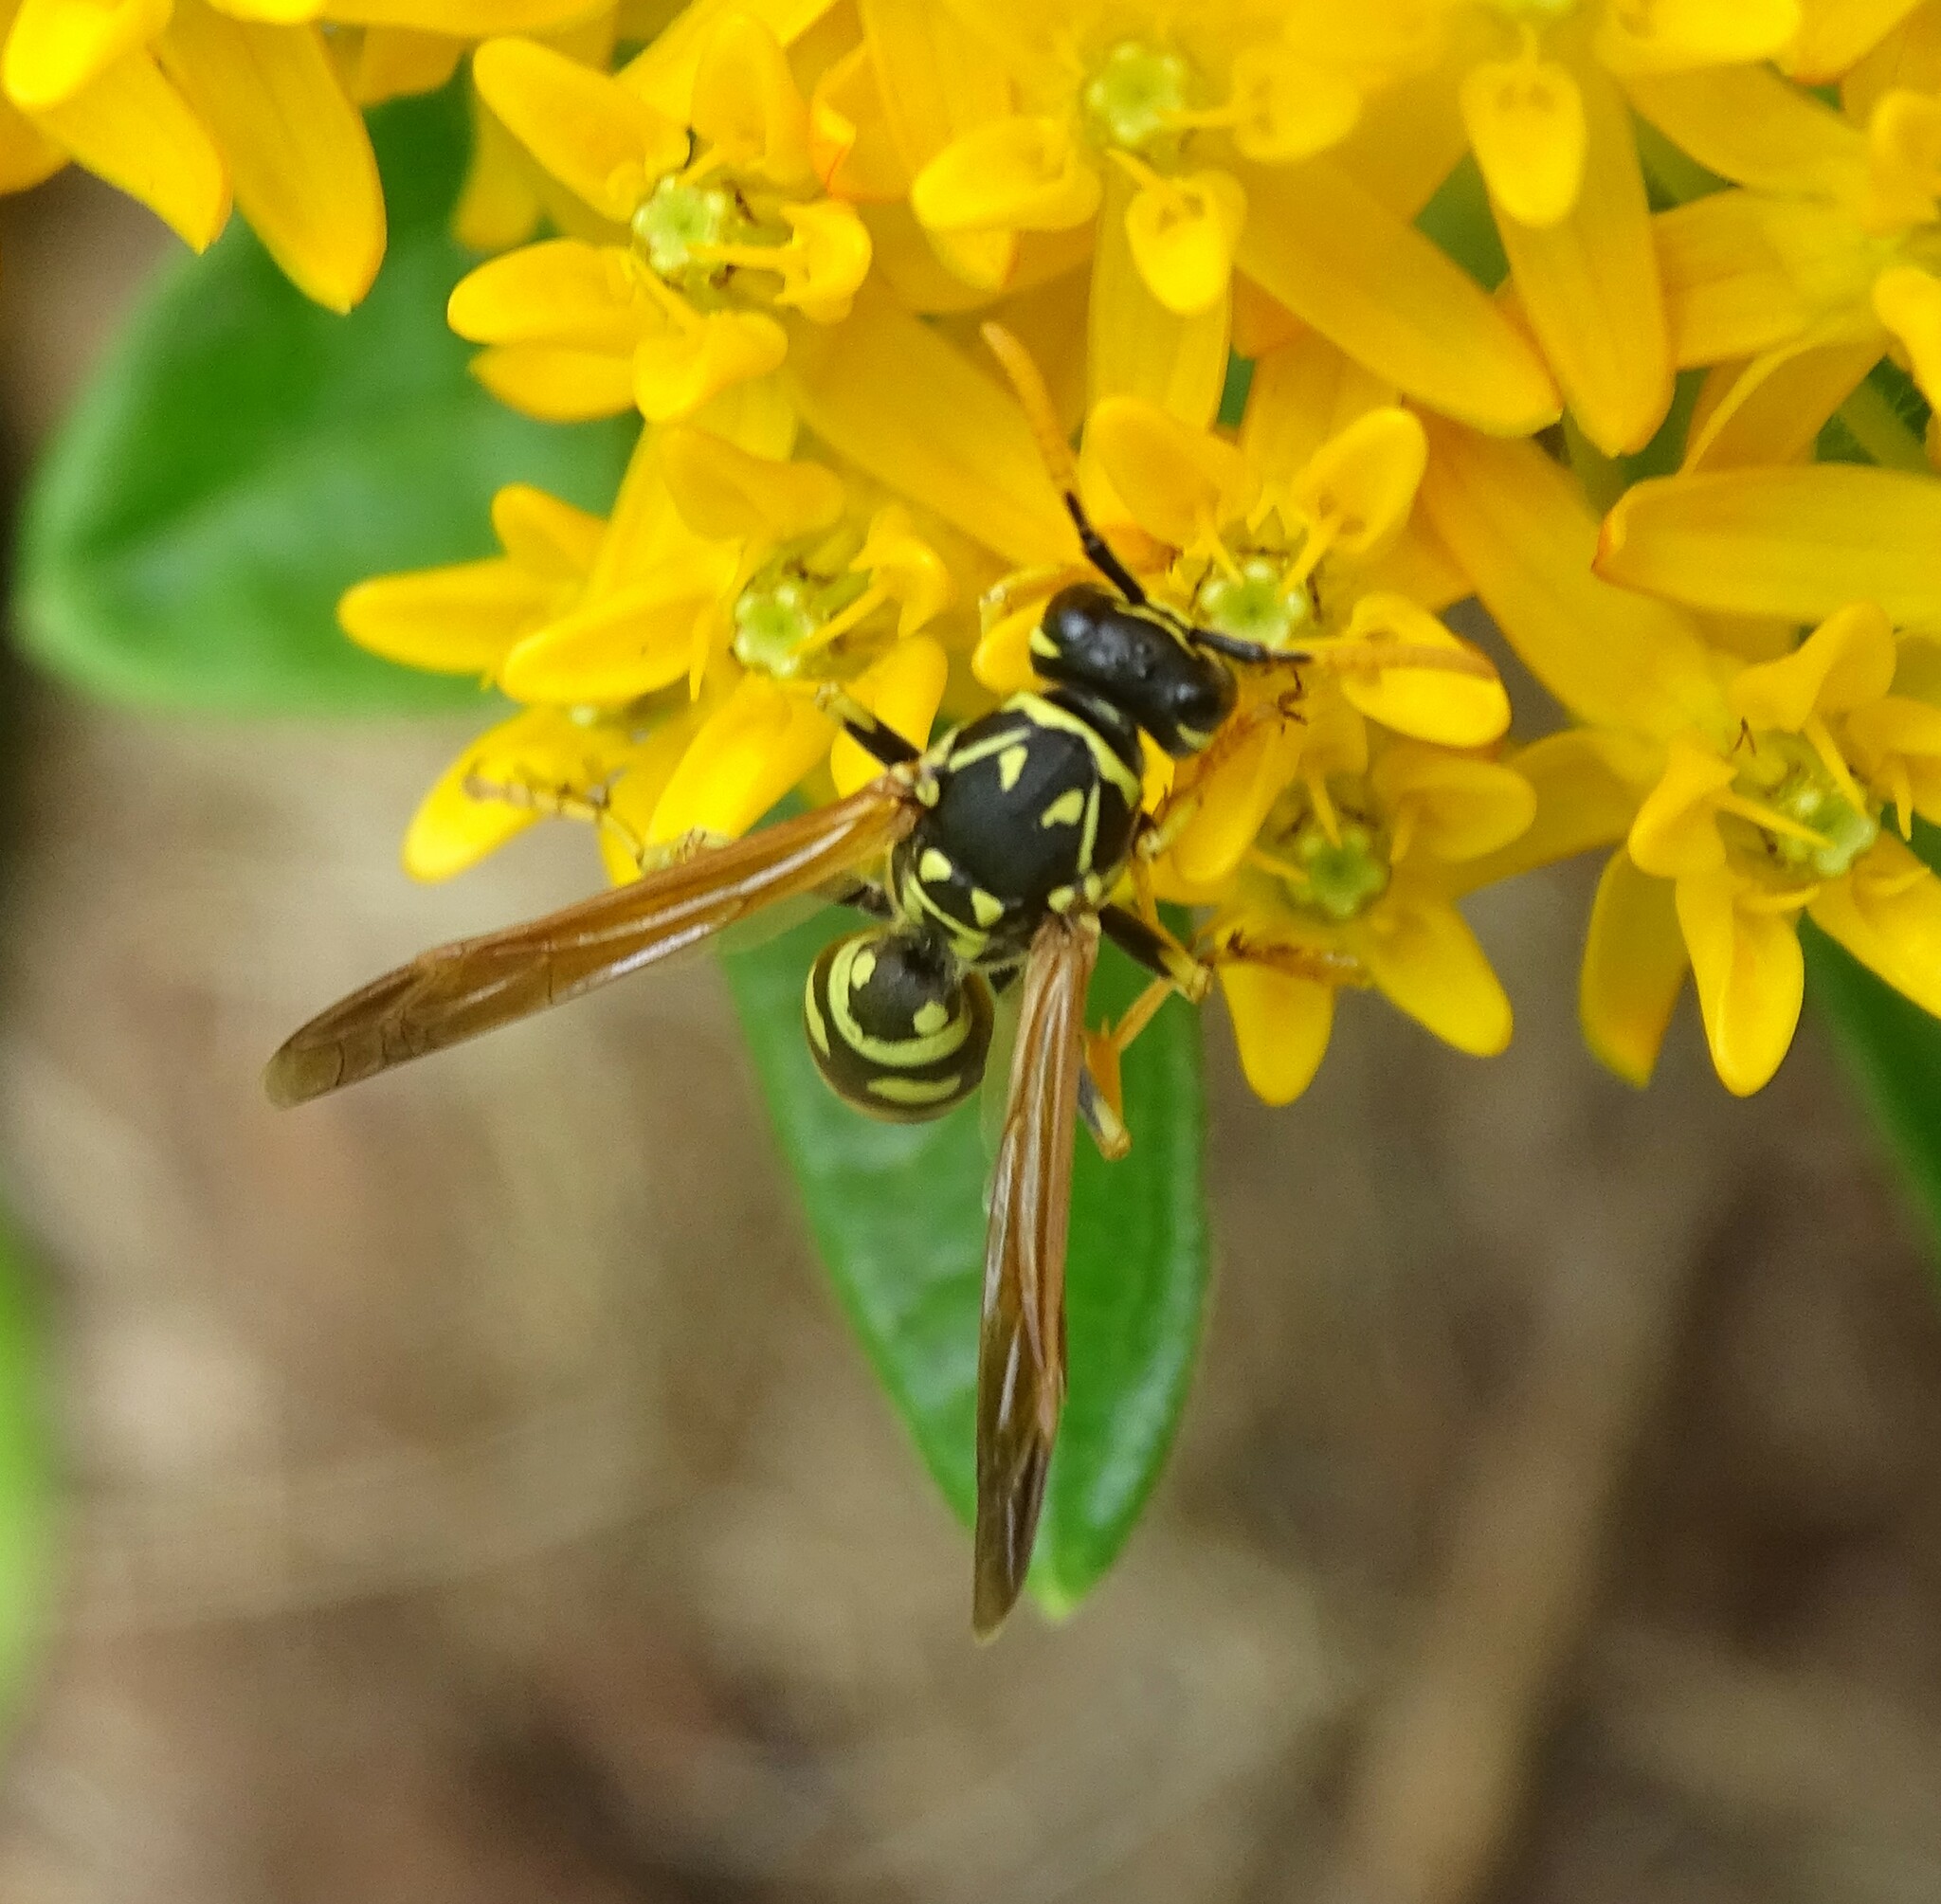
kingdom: Animalia
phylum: Arthropoda
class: Insecta
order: Hymenoptera
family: Eumenidae
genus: Polistes
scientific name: Polistes dominula
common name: Paper wasp
